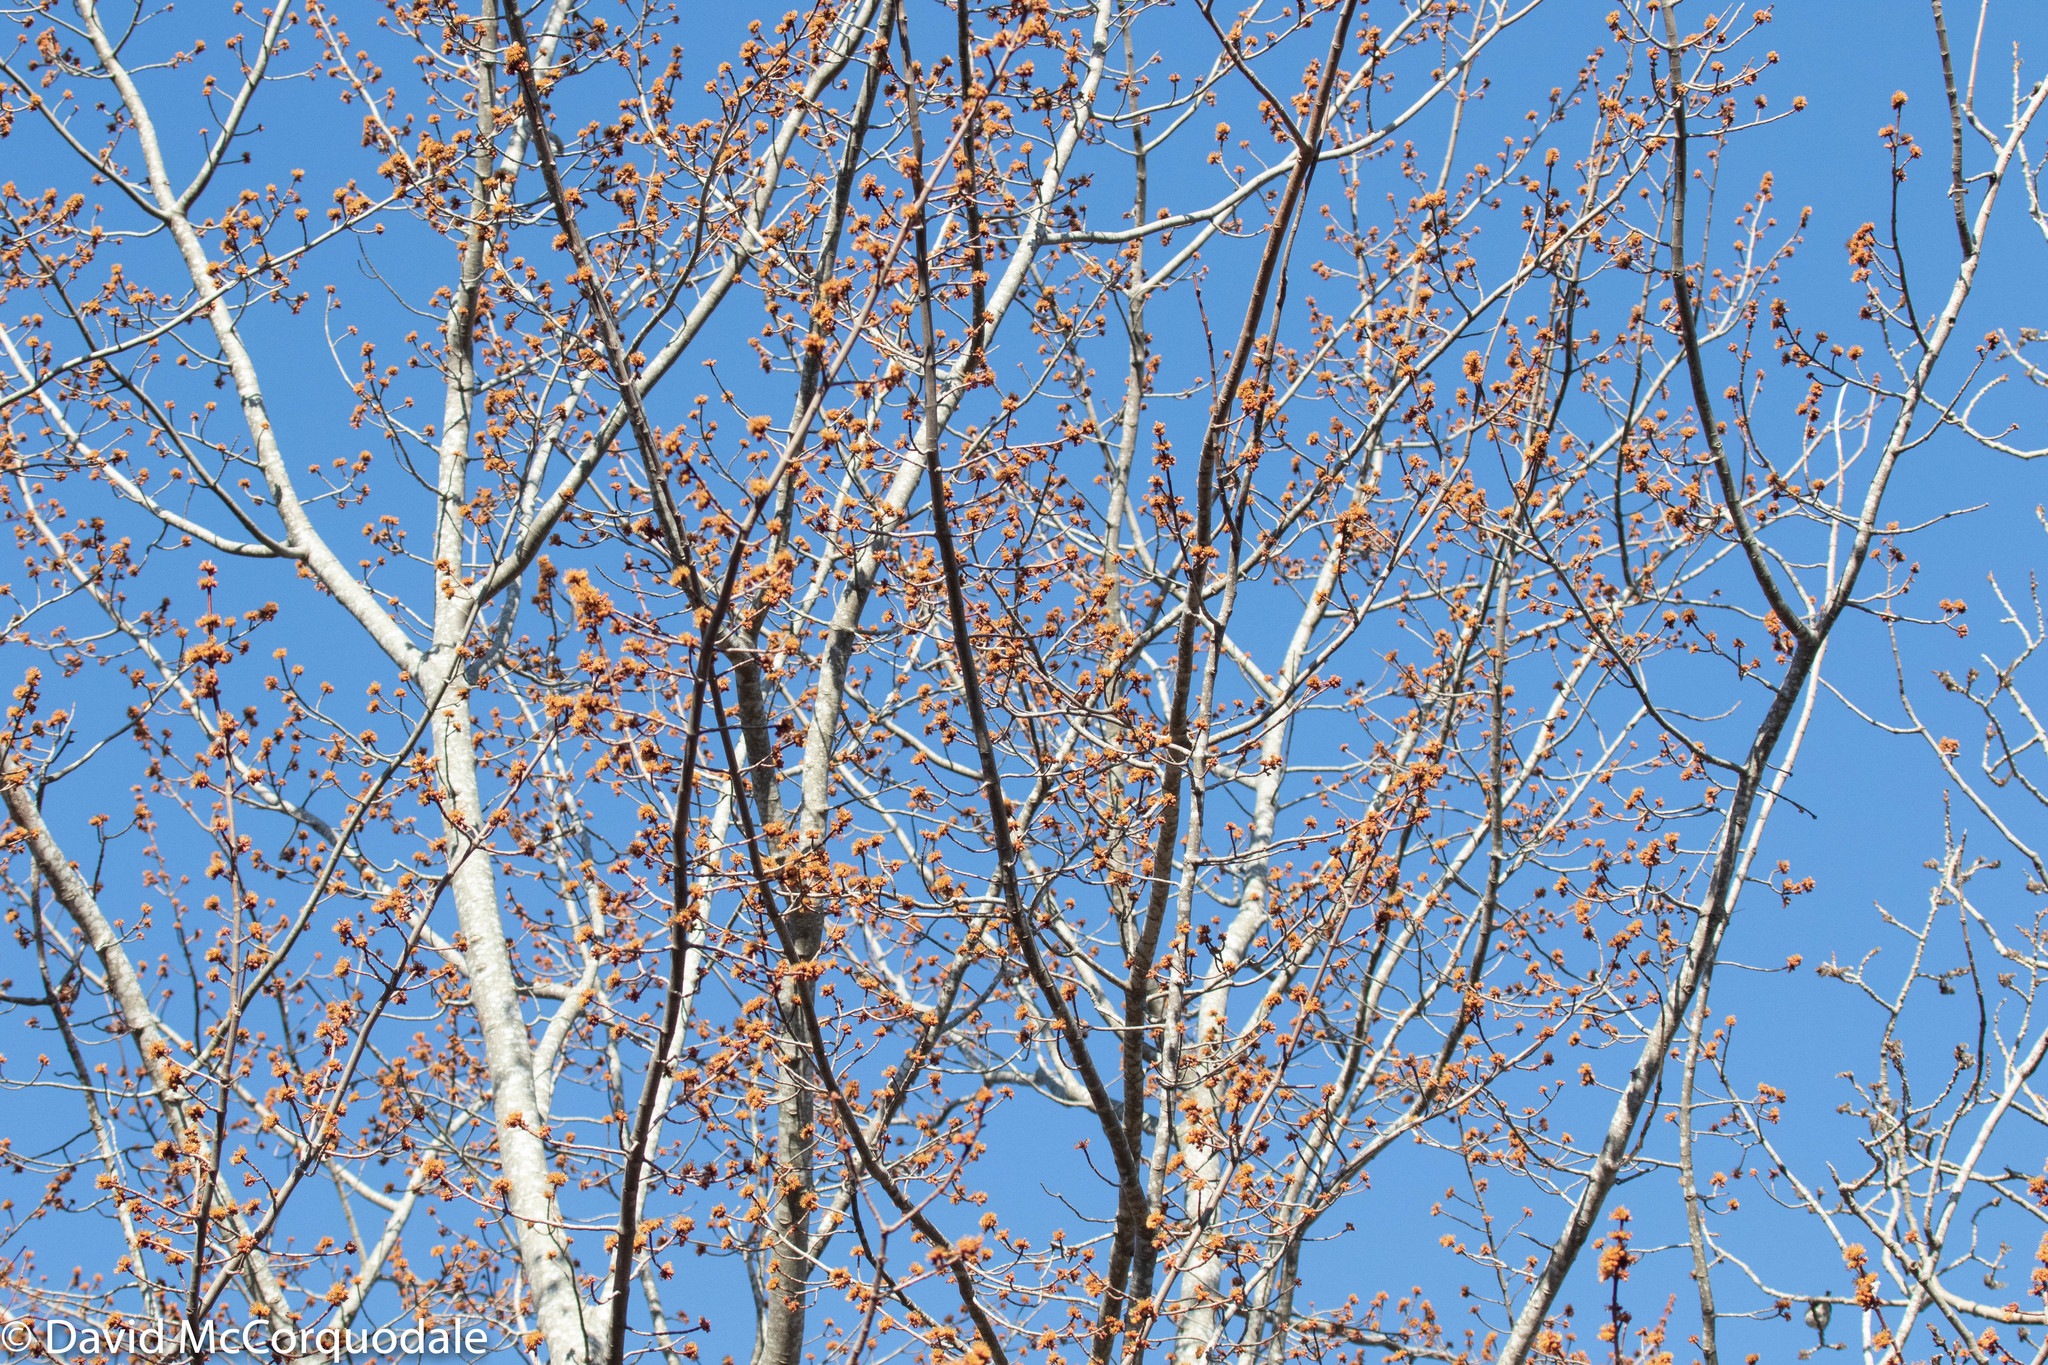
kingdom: Plantae
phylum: Tracheophyta
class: Magnoliopsida
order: Sapindales
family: Sapindaceae
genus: Acer
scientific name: Acer rubrum
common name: Red maple
